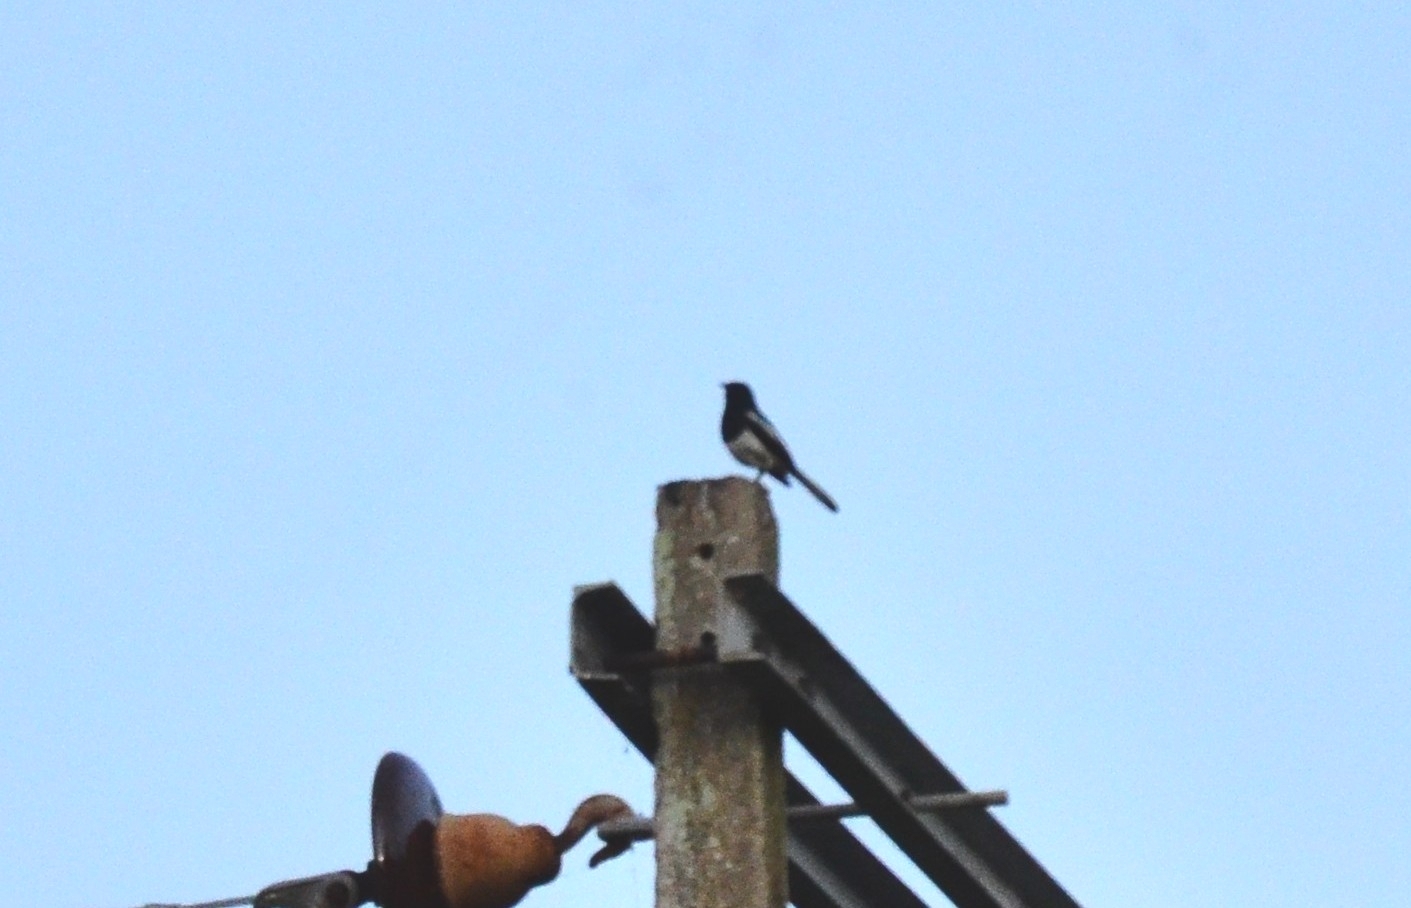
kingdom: Animalia
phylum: Chordata
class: Aves
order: Passeriformes
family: Muscicapidae
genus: Copsychus
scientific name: Copsychus saularis
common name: Oriental magpie-robin
